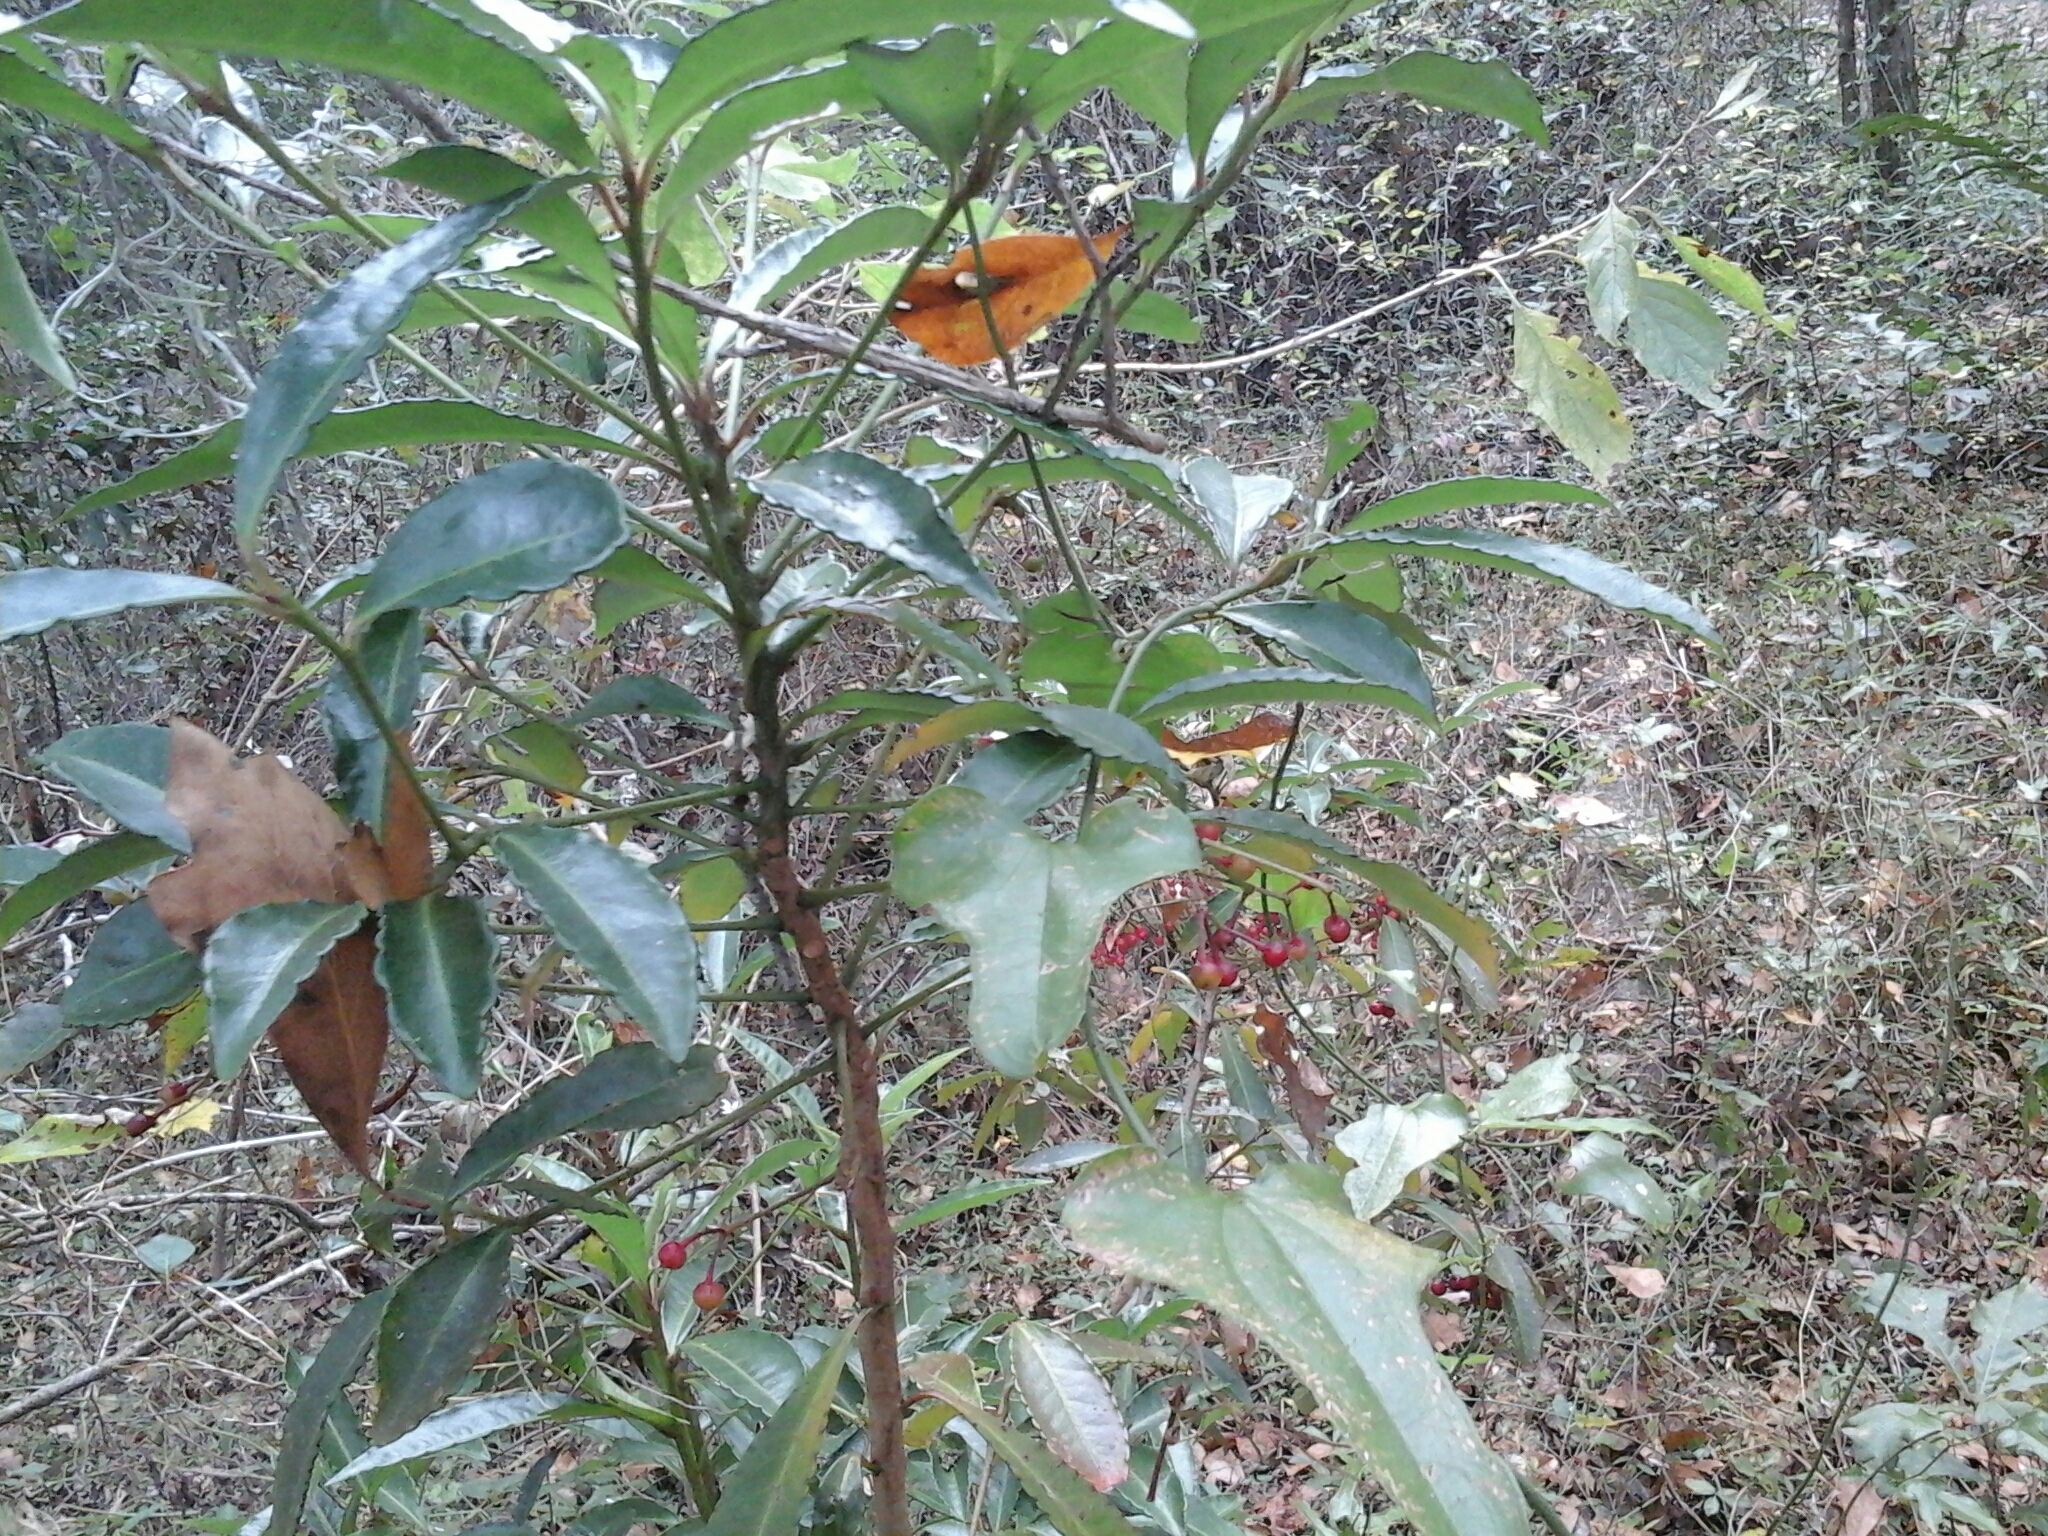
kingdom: Plantae
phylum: Tracheophyta
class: Magnoliopsida
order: Ericales
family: Primulaceae
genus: Ardisia
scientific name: Ardisia crenata
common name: Hen's eyes
